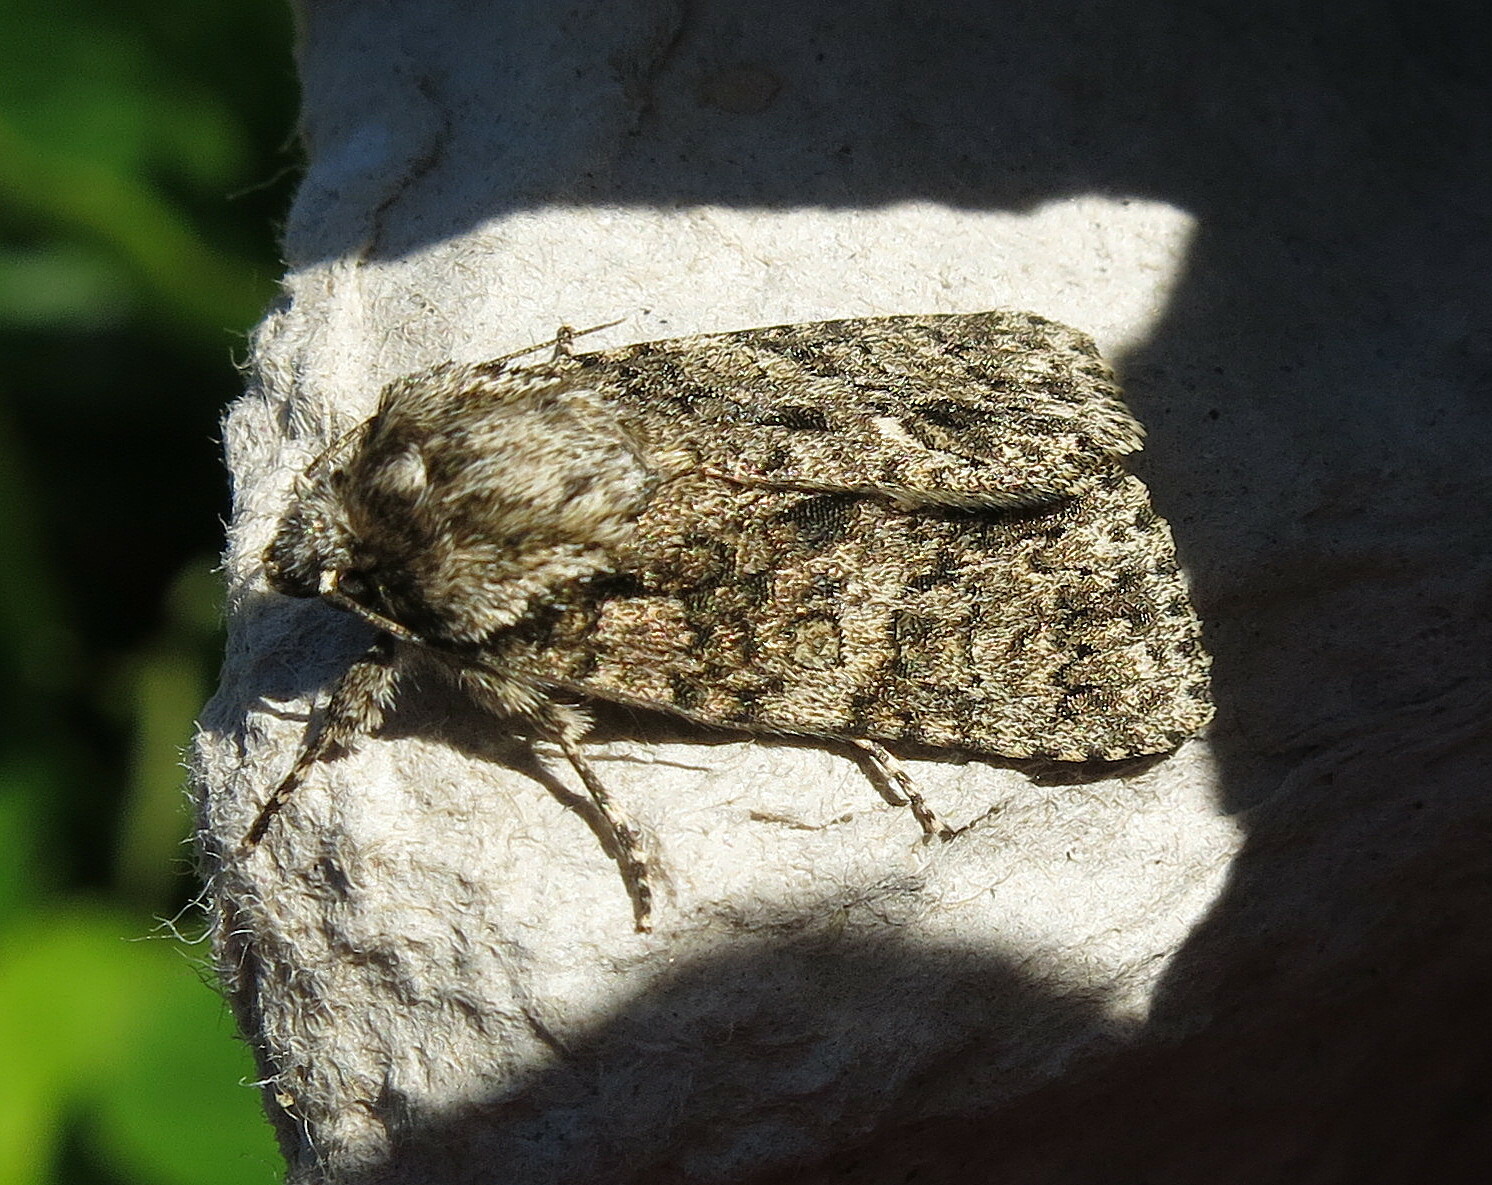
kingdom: Animalia
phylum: Arthropoda
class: Insecta
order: Lepidoptera
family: Noctuidae
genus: Acronicta
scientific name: Acronicta rumicis
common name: Knot grass
